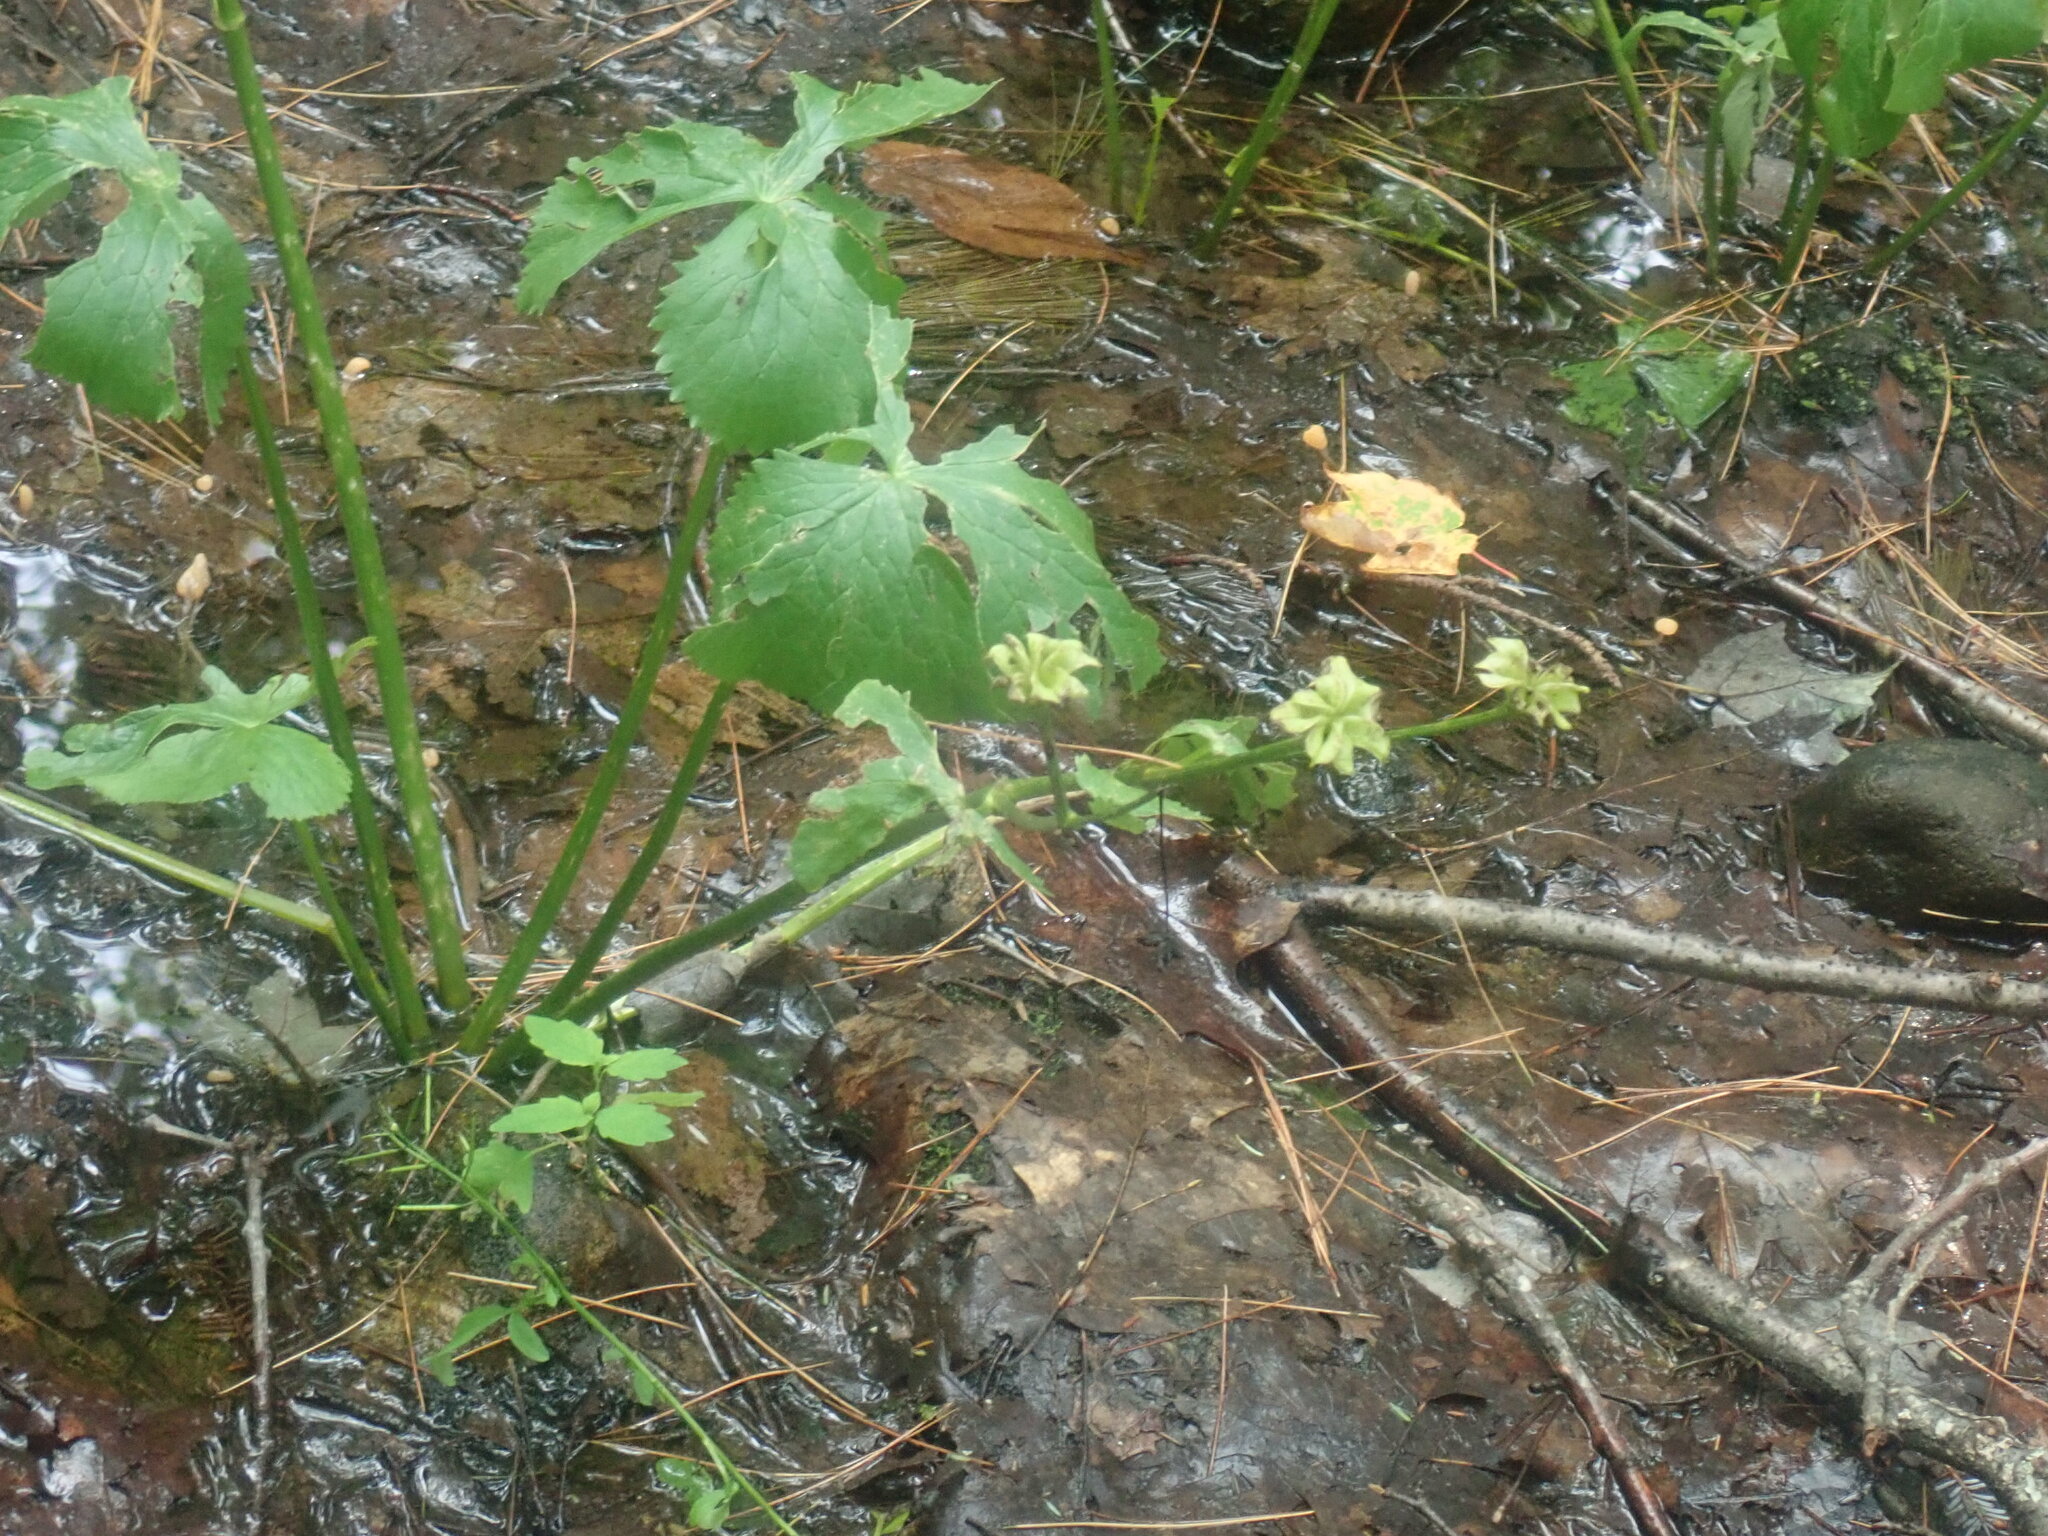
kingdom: Plantae
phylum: Tracheophyta
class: Magnoliopsida
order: Ranunculales
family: Ranunculaceae
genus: Caltha
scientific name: Caltha palustris
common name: Marsh marigold
